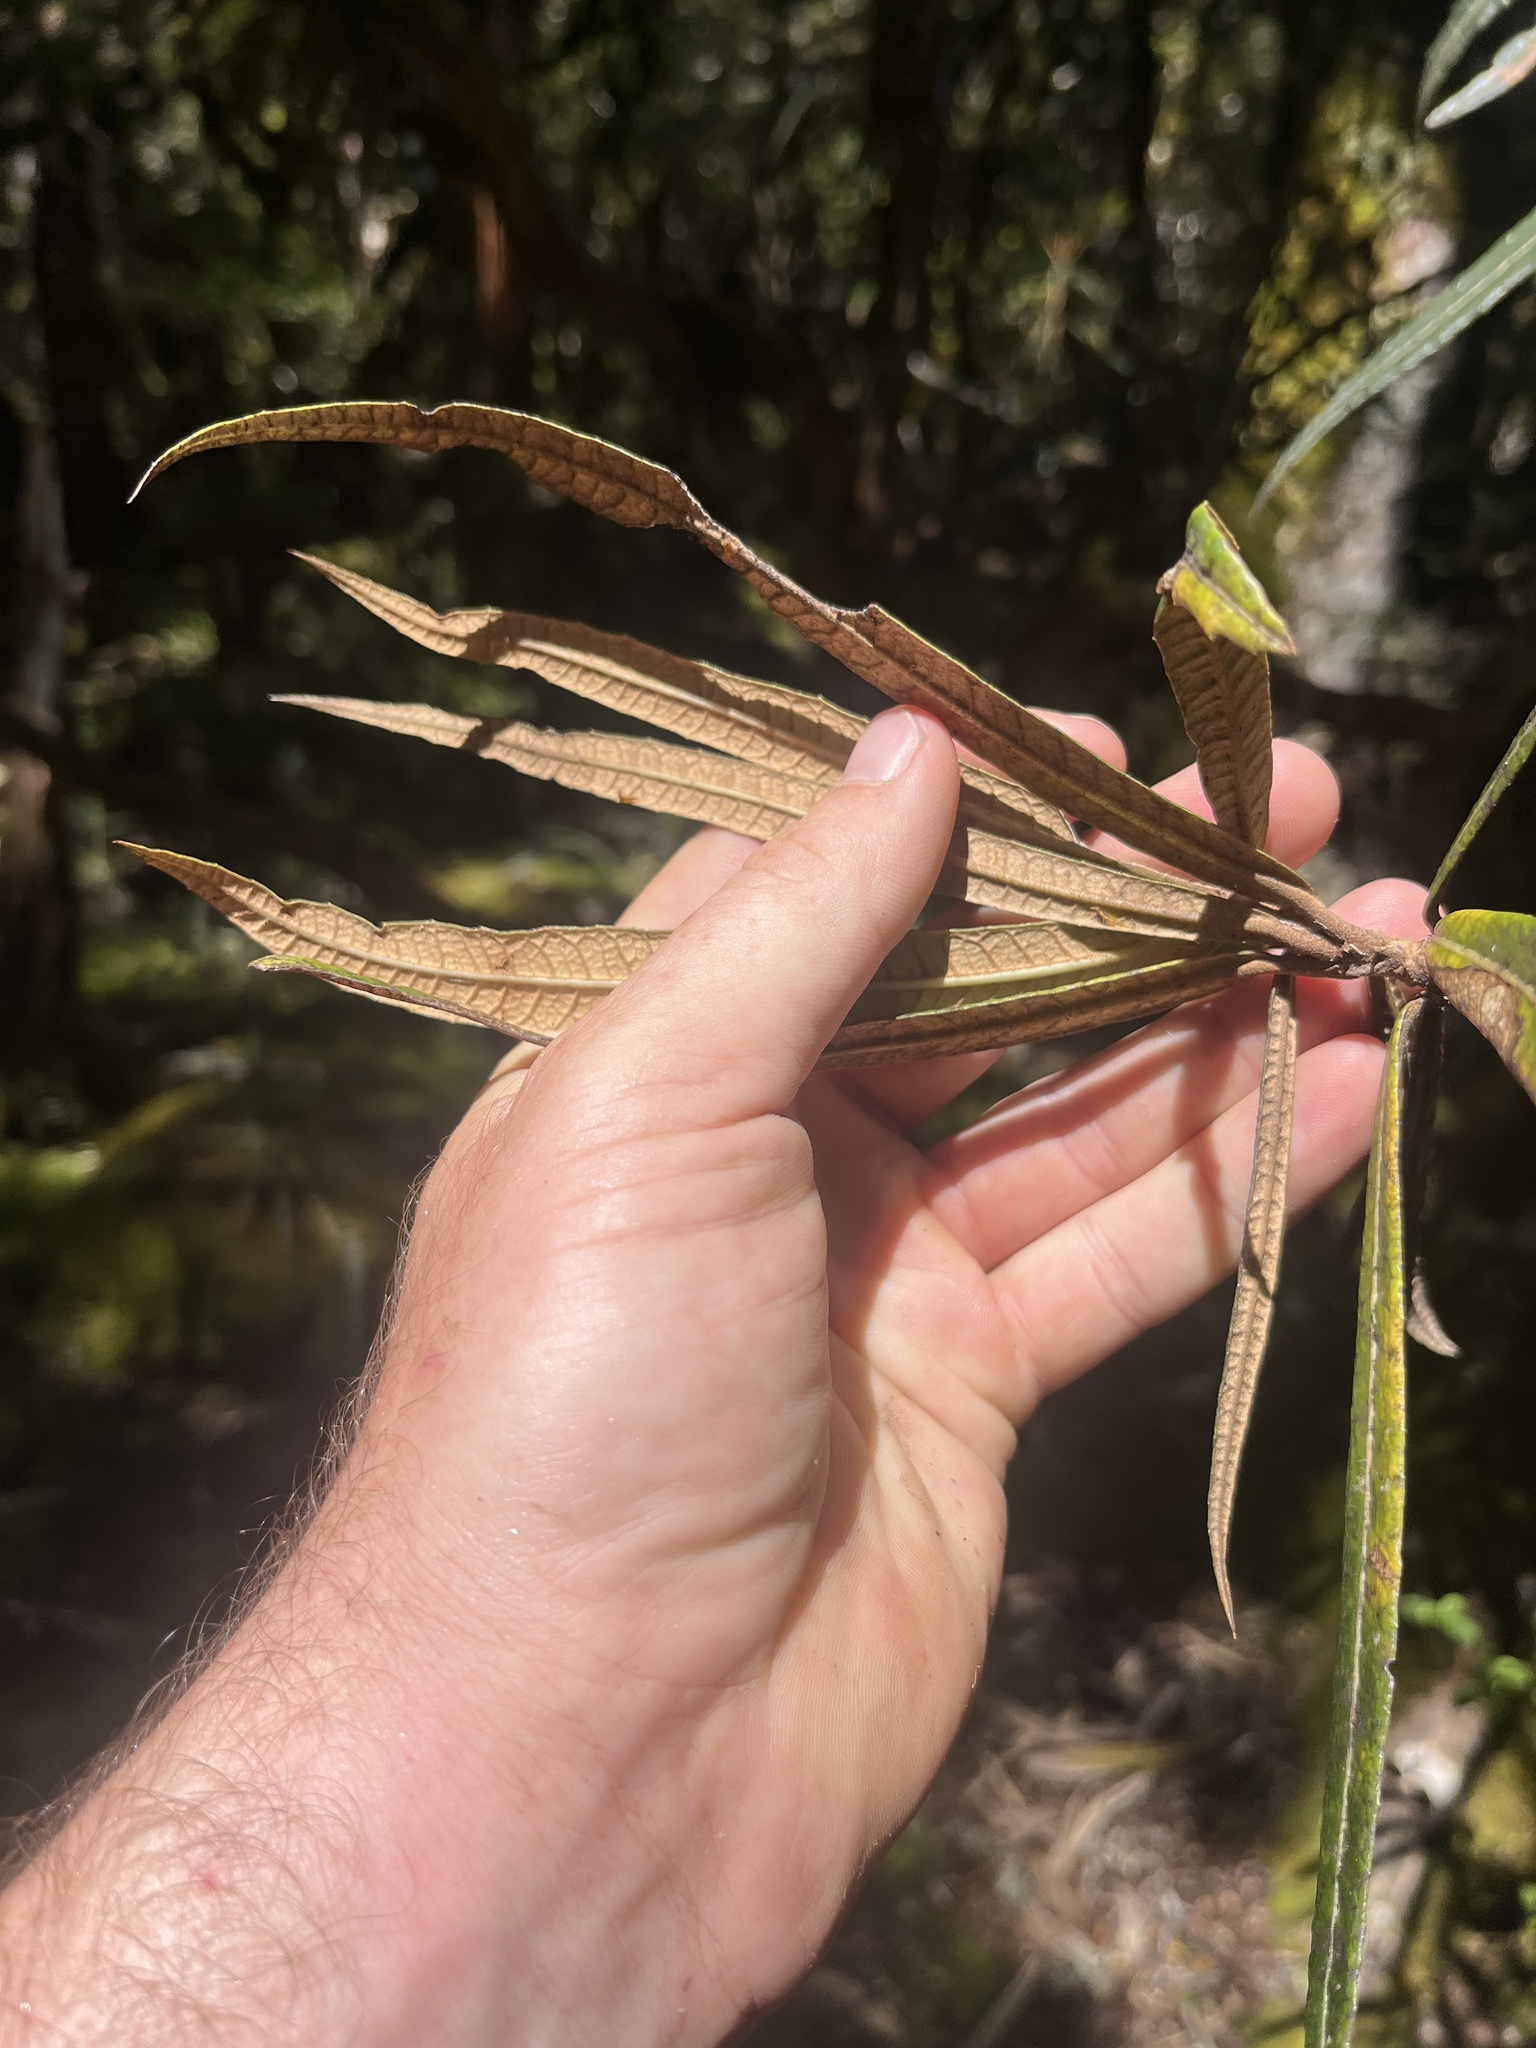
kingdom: Plantae
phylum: Tracheophyta
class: Magnoliopsida
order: Asterales
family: Asteraceae
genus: Olearia
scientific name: Olearia lacunosa
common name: Lancewood tree daisy
